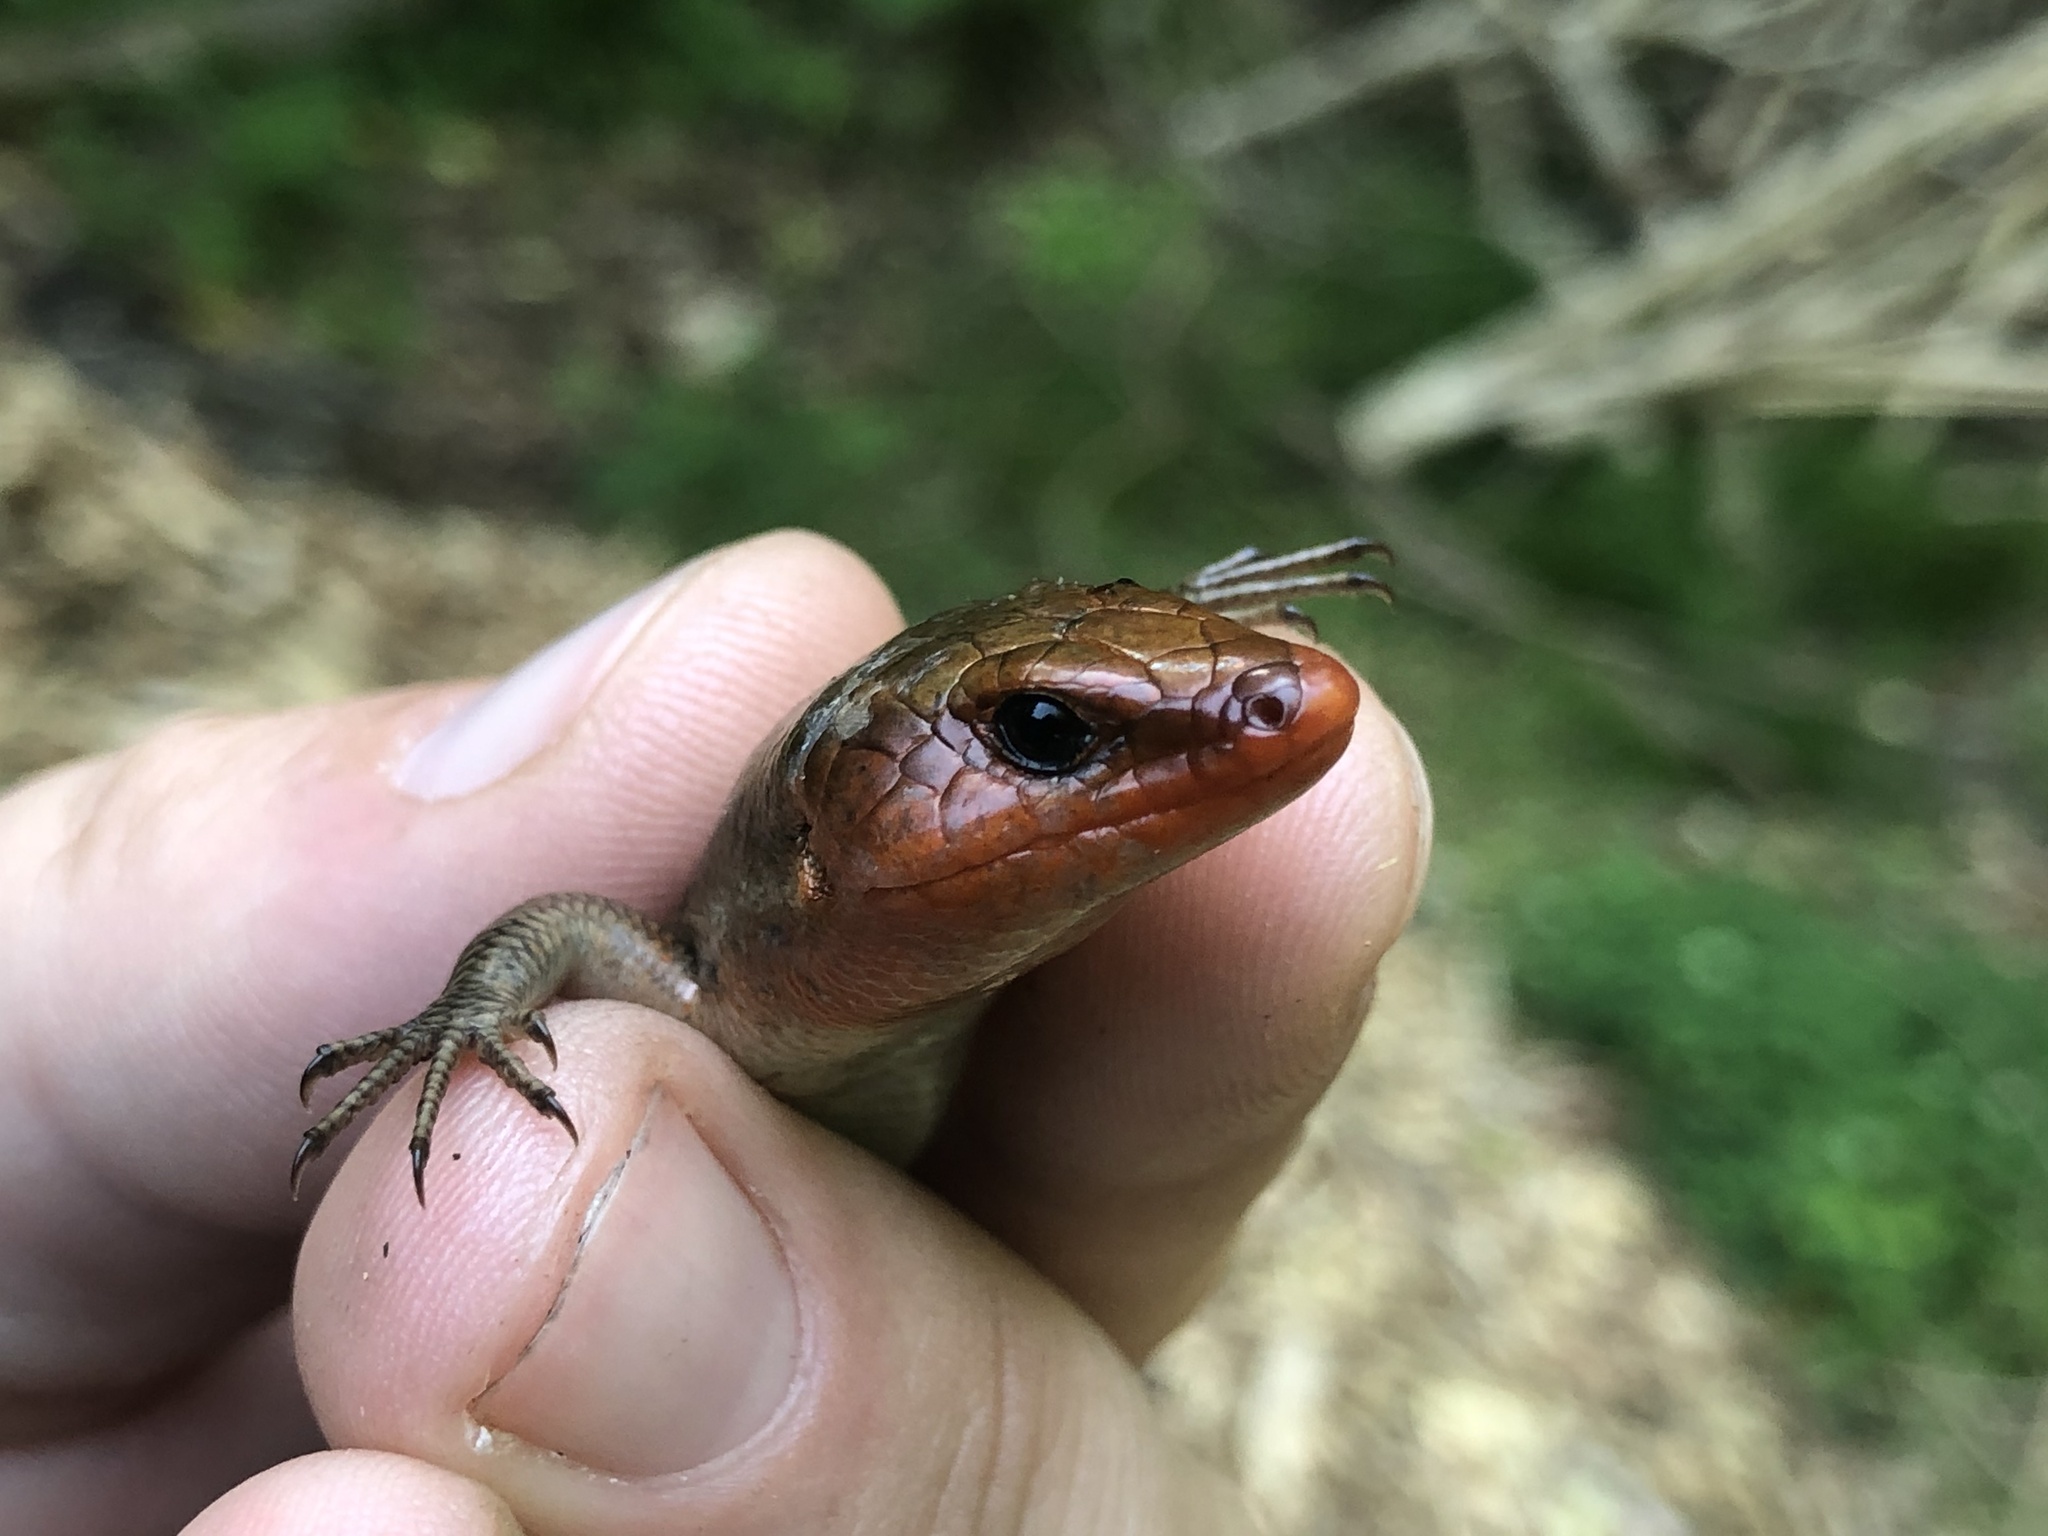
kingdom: Animalia
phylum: Chordata
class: Squamata
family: Scincidae
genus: Plestiodon
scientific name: Plestiodon fasciatus
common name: Five-lined skink
